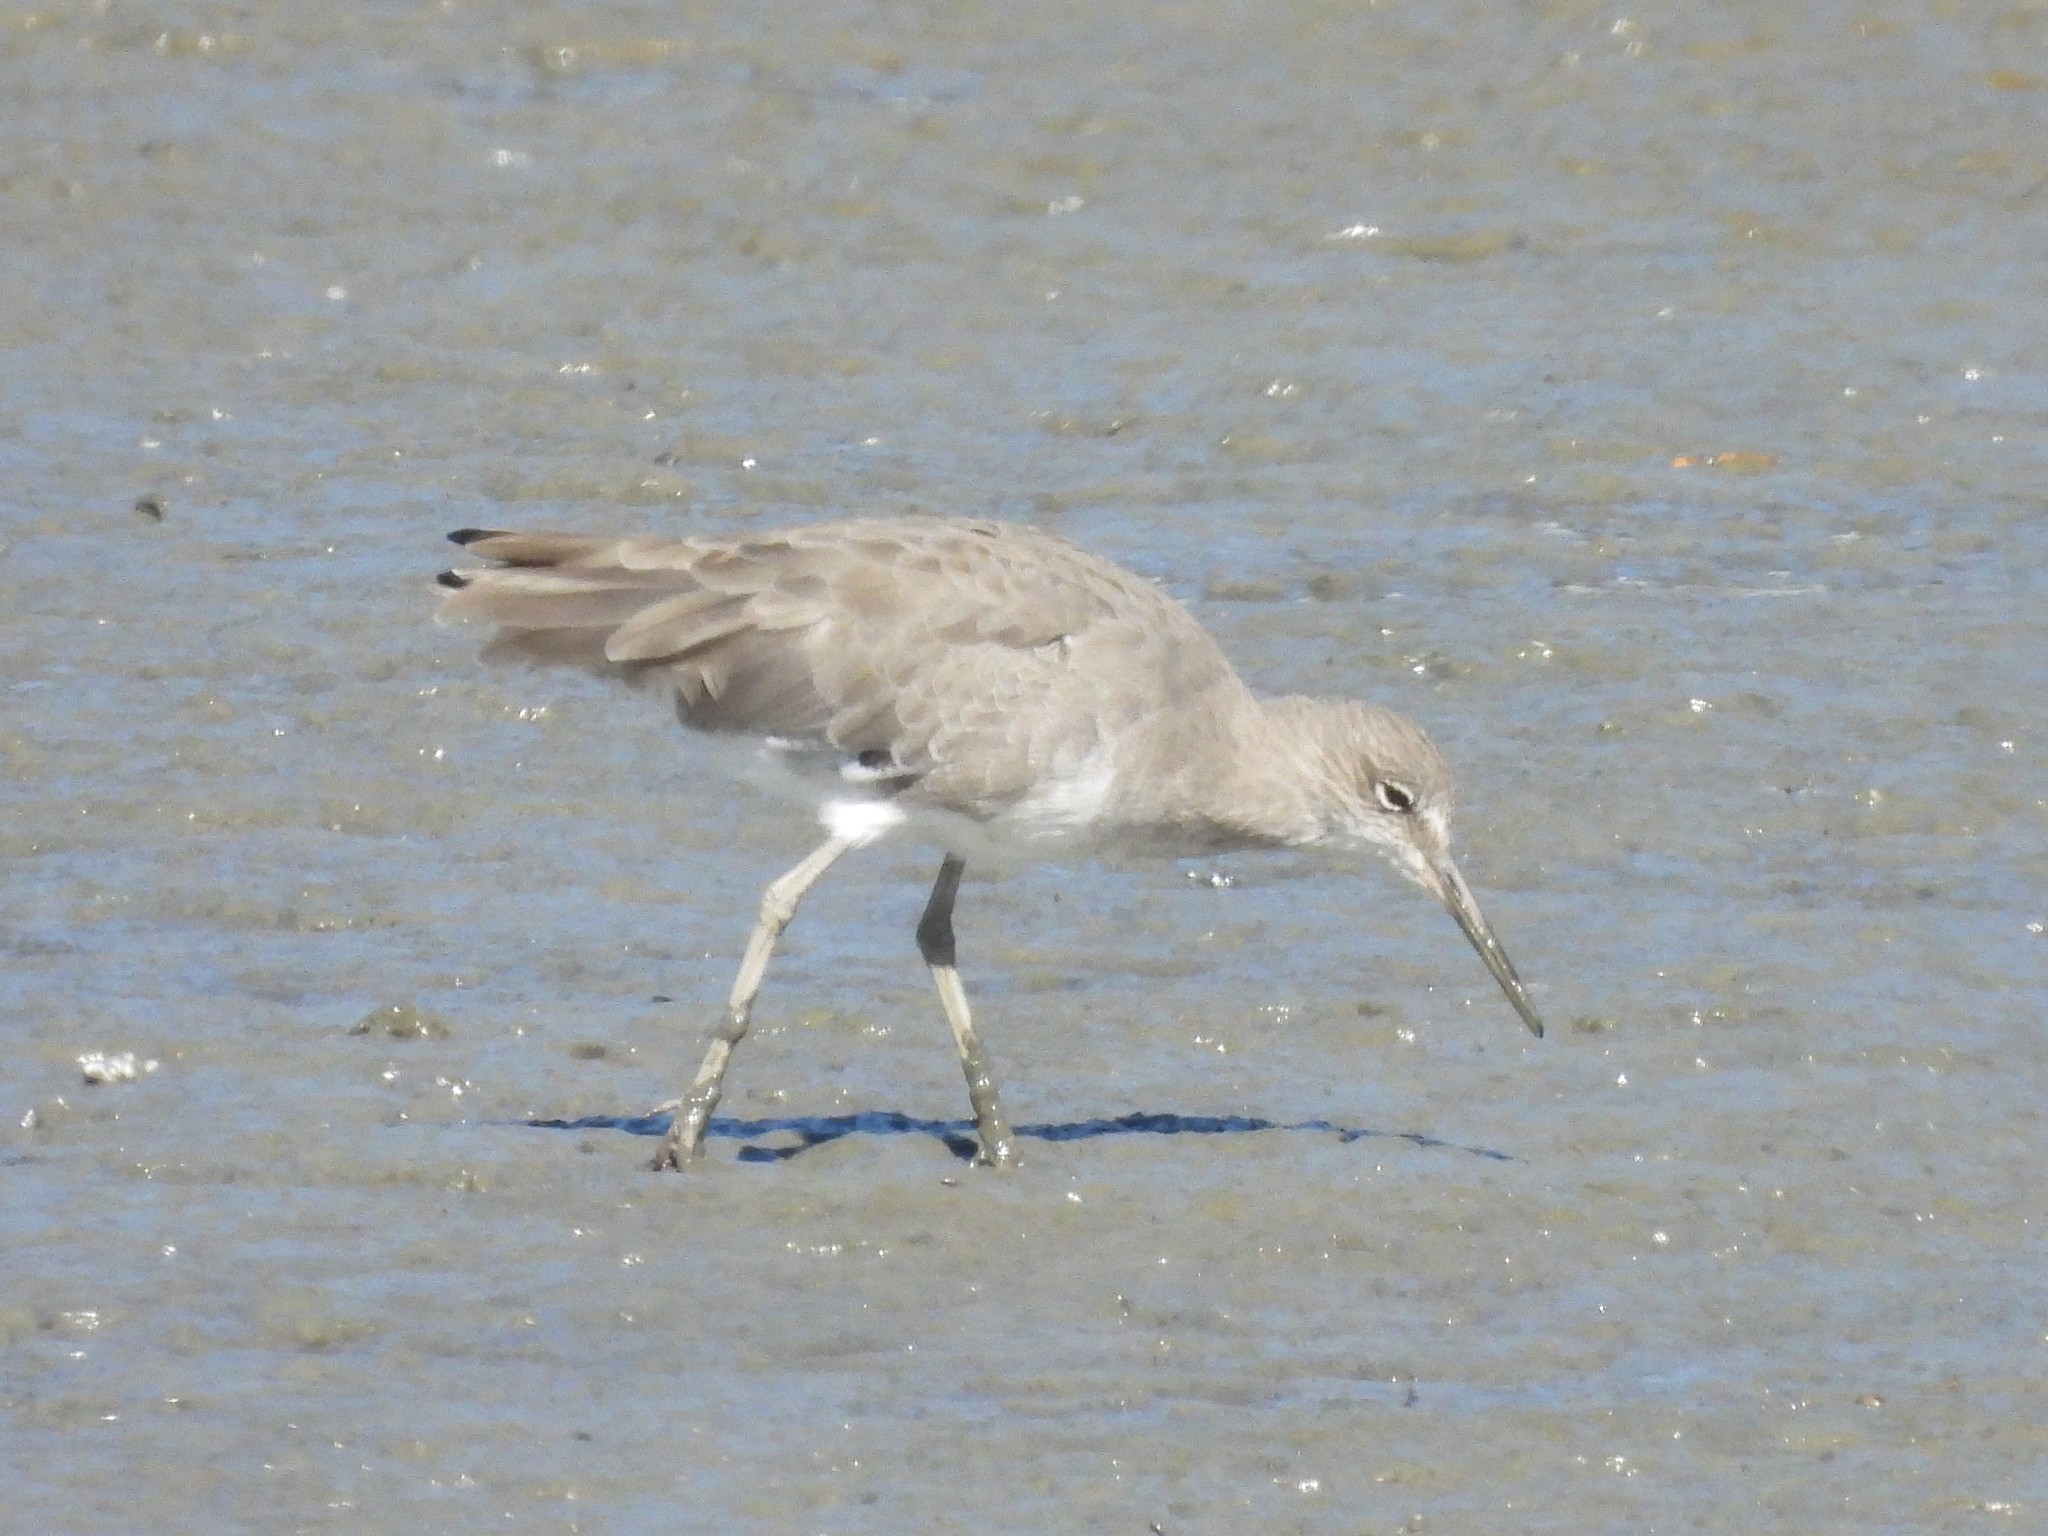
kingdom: Animalia
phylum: Chordata
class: Aves
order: Charadriiformes
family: Scolopacidae
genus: Tringa
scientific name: Tringa semipalmata
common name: Willet
